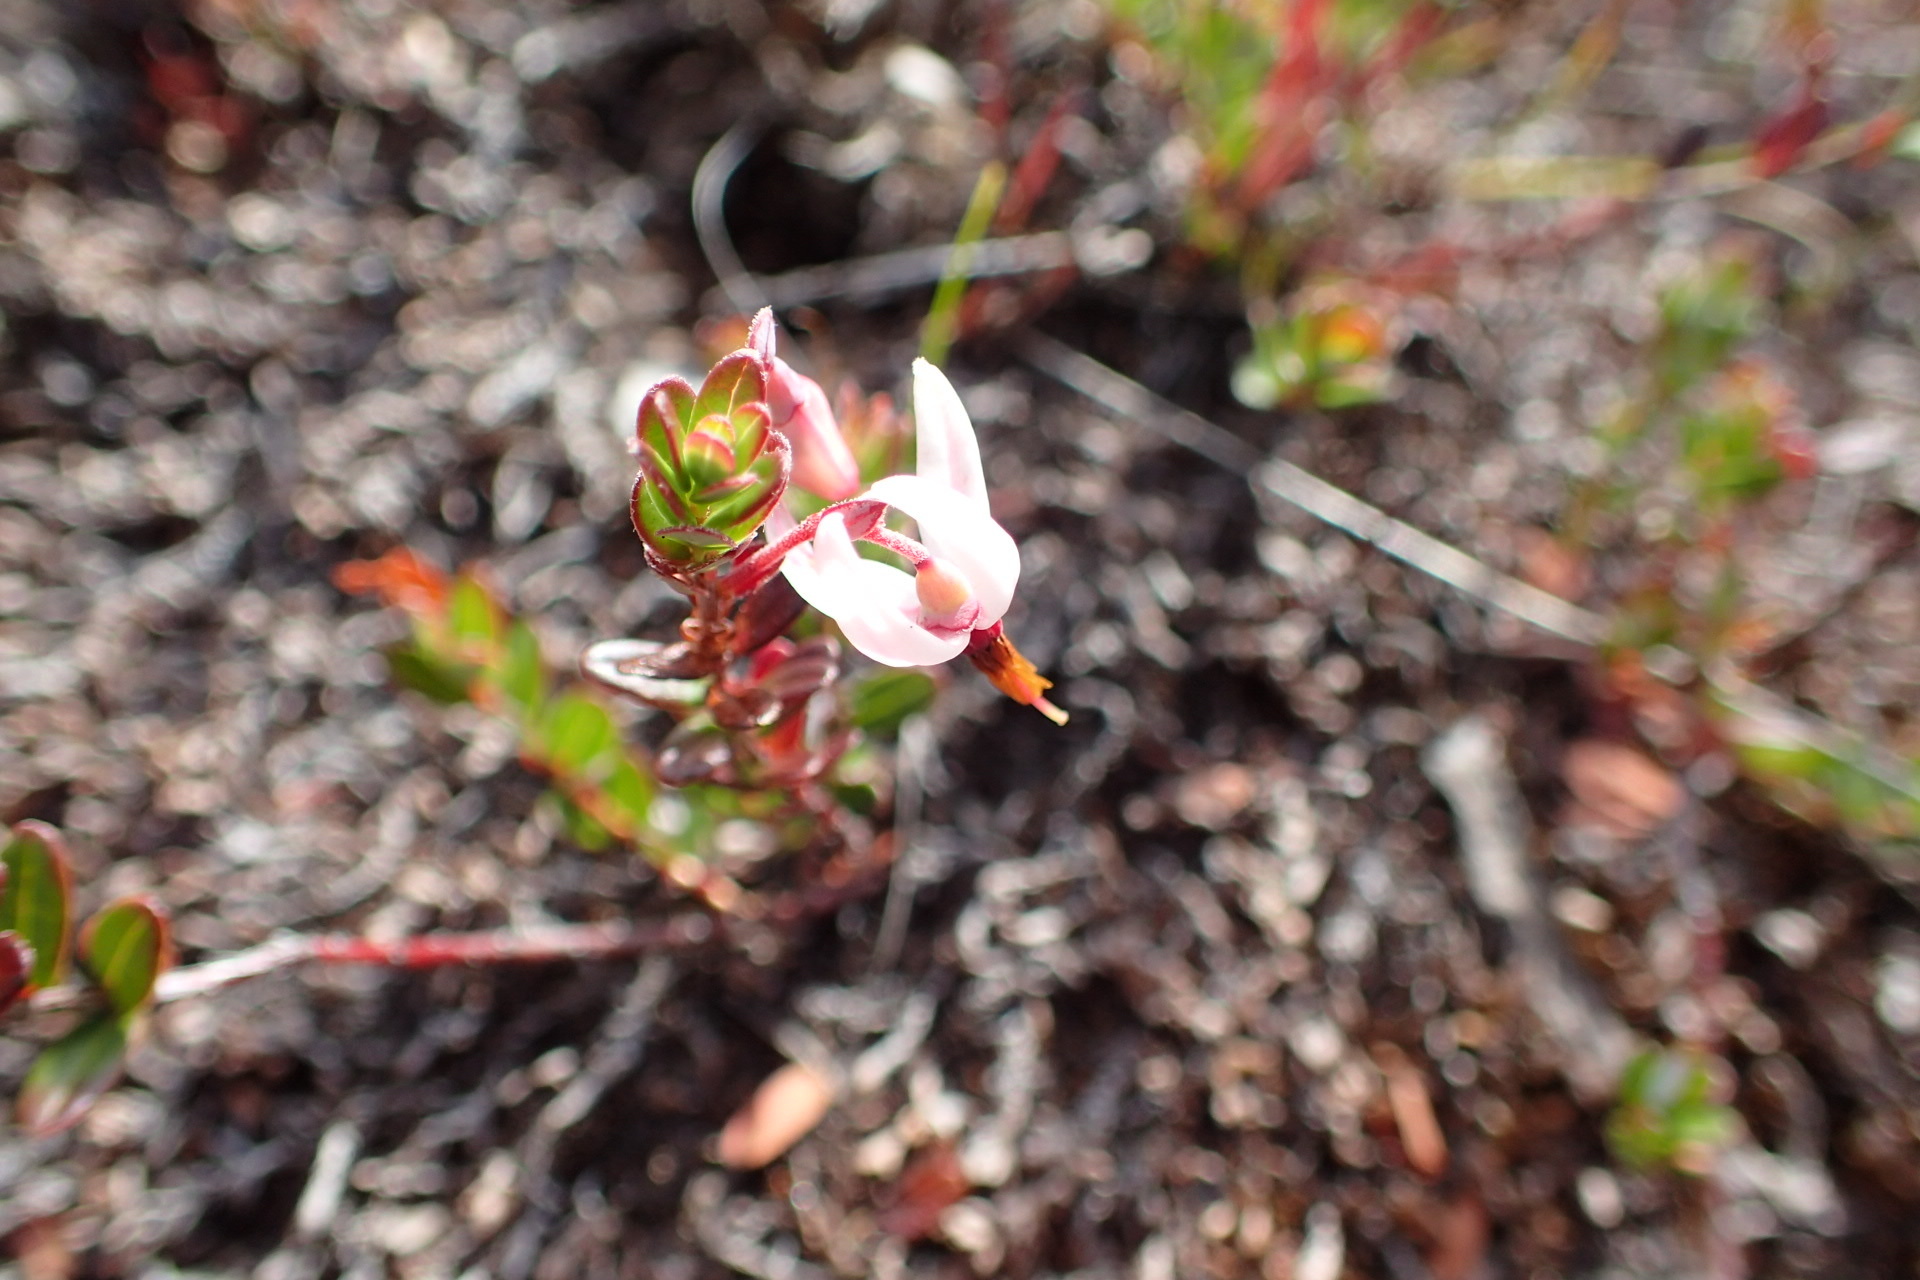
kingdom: Plantae
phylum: Tracheophyta
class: Magnoliopsida
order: Ericales
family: Ericaceae
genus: Vaccinium
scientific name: Vaccinium macrocarpon
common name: American cranberry
